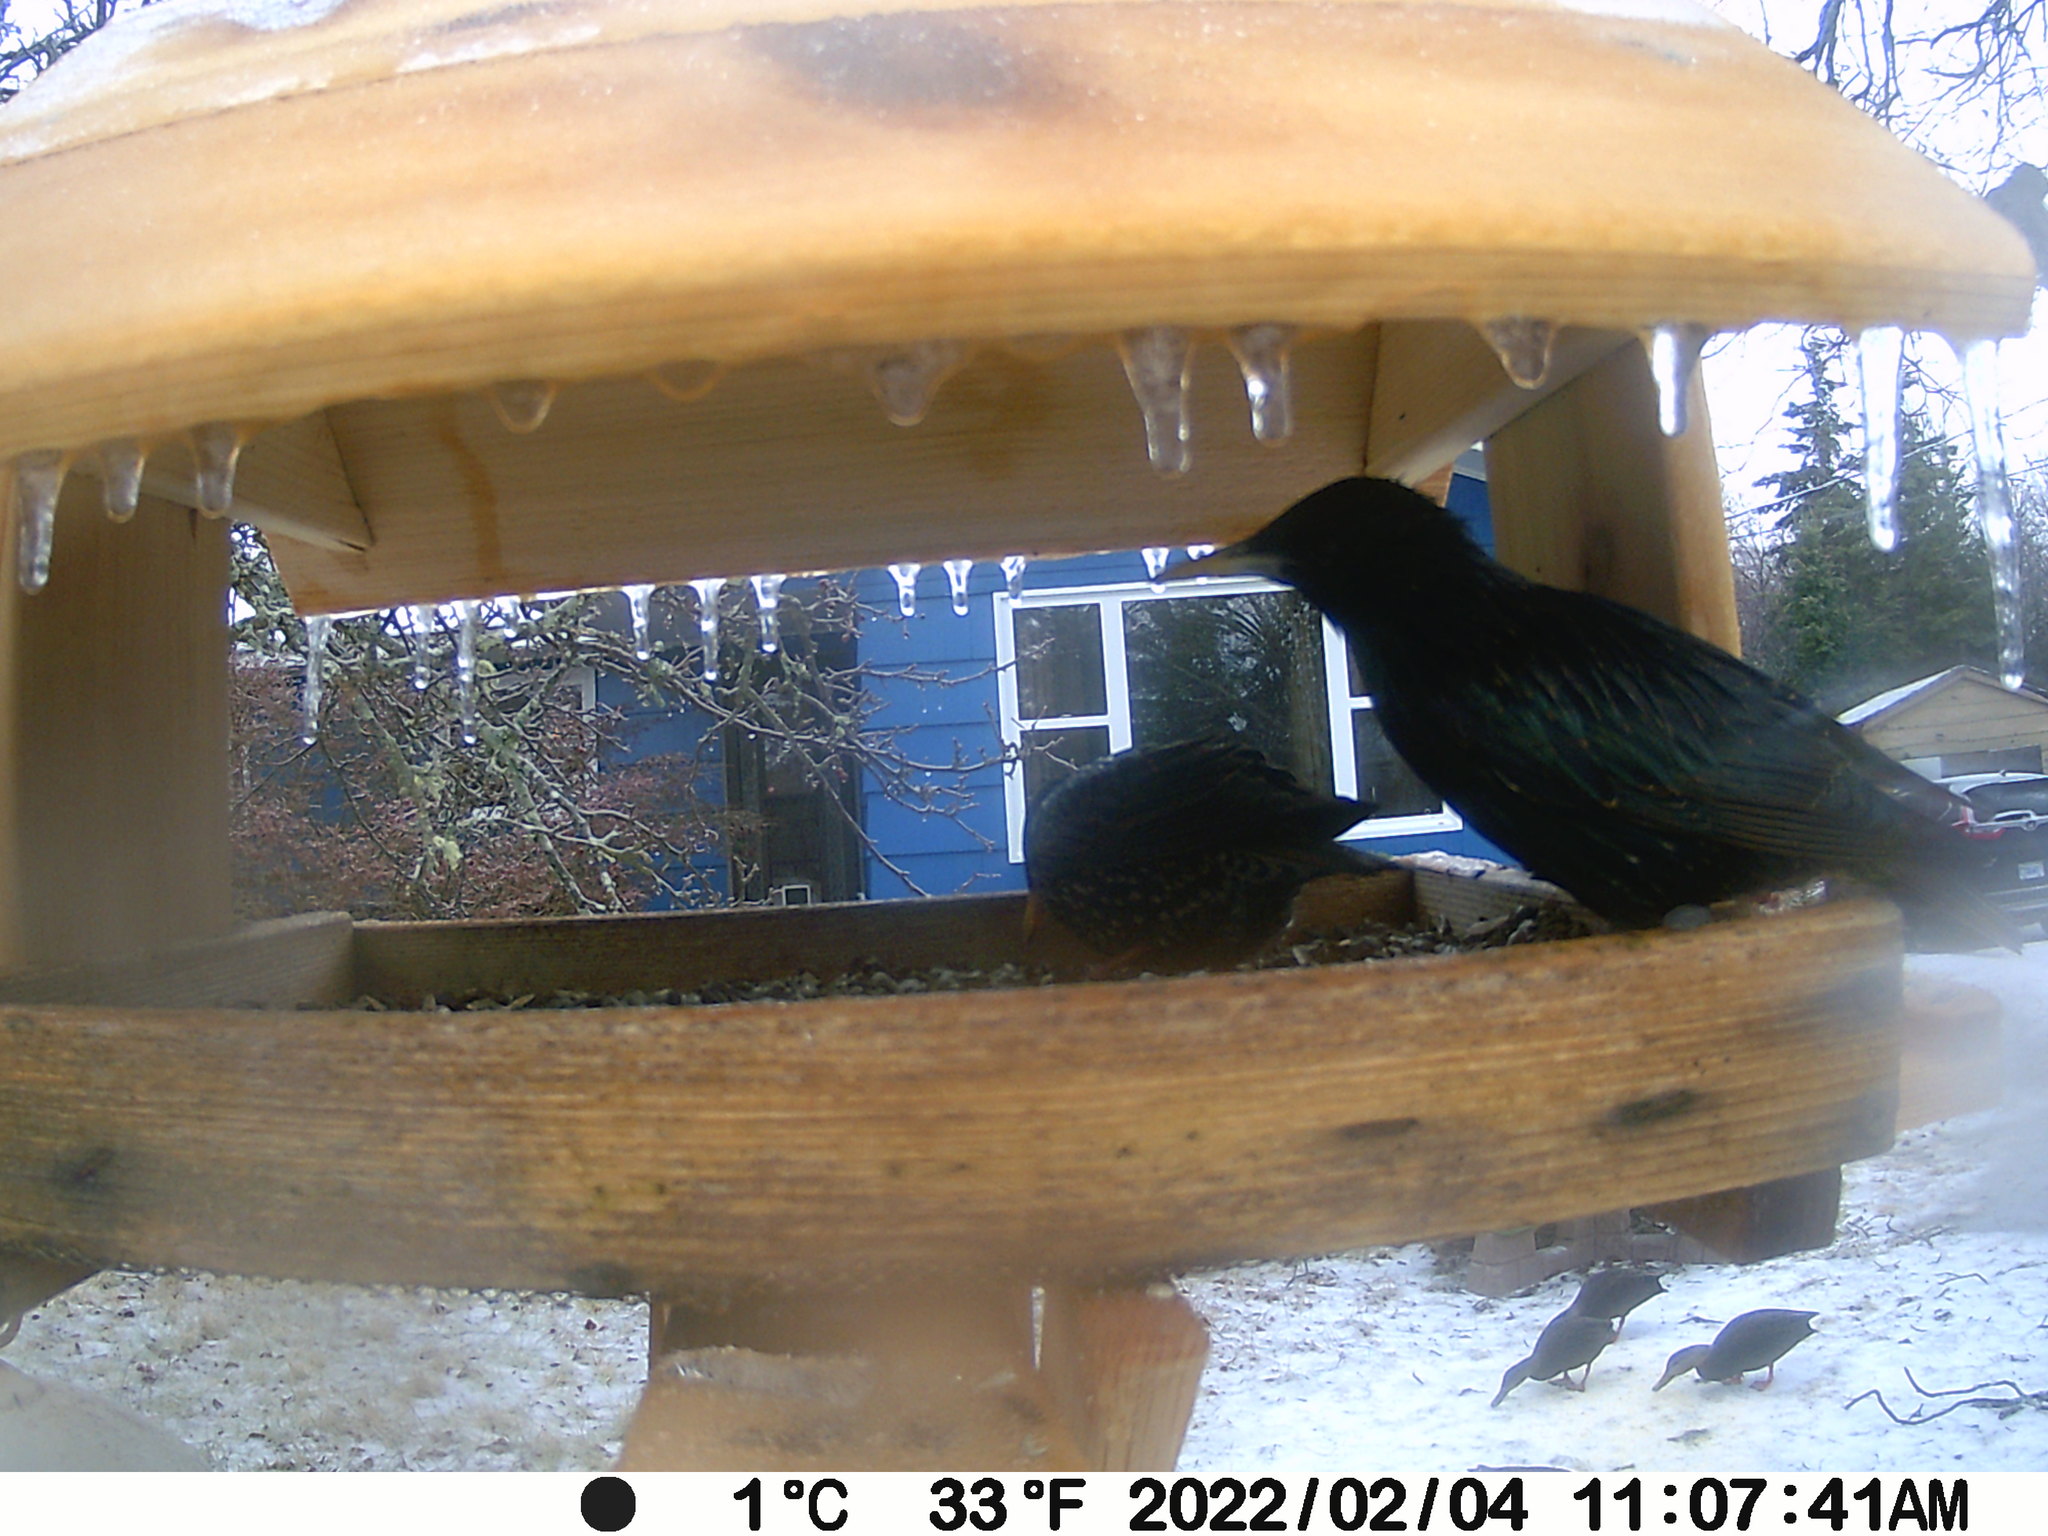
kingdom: Animalia
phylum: Chordata
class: Aves
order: Passeriformes
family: Sturnidae
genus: Sturnus
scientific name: Sturnus vulgaris
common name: Common starling
